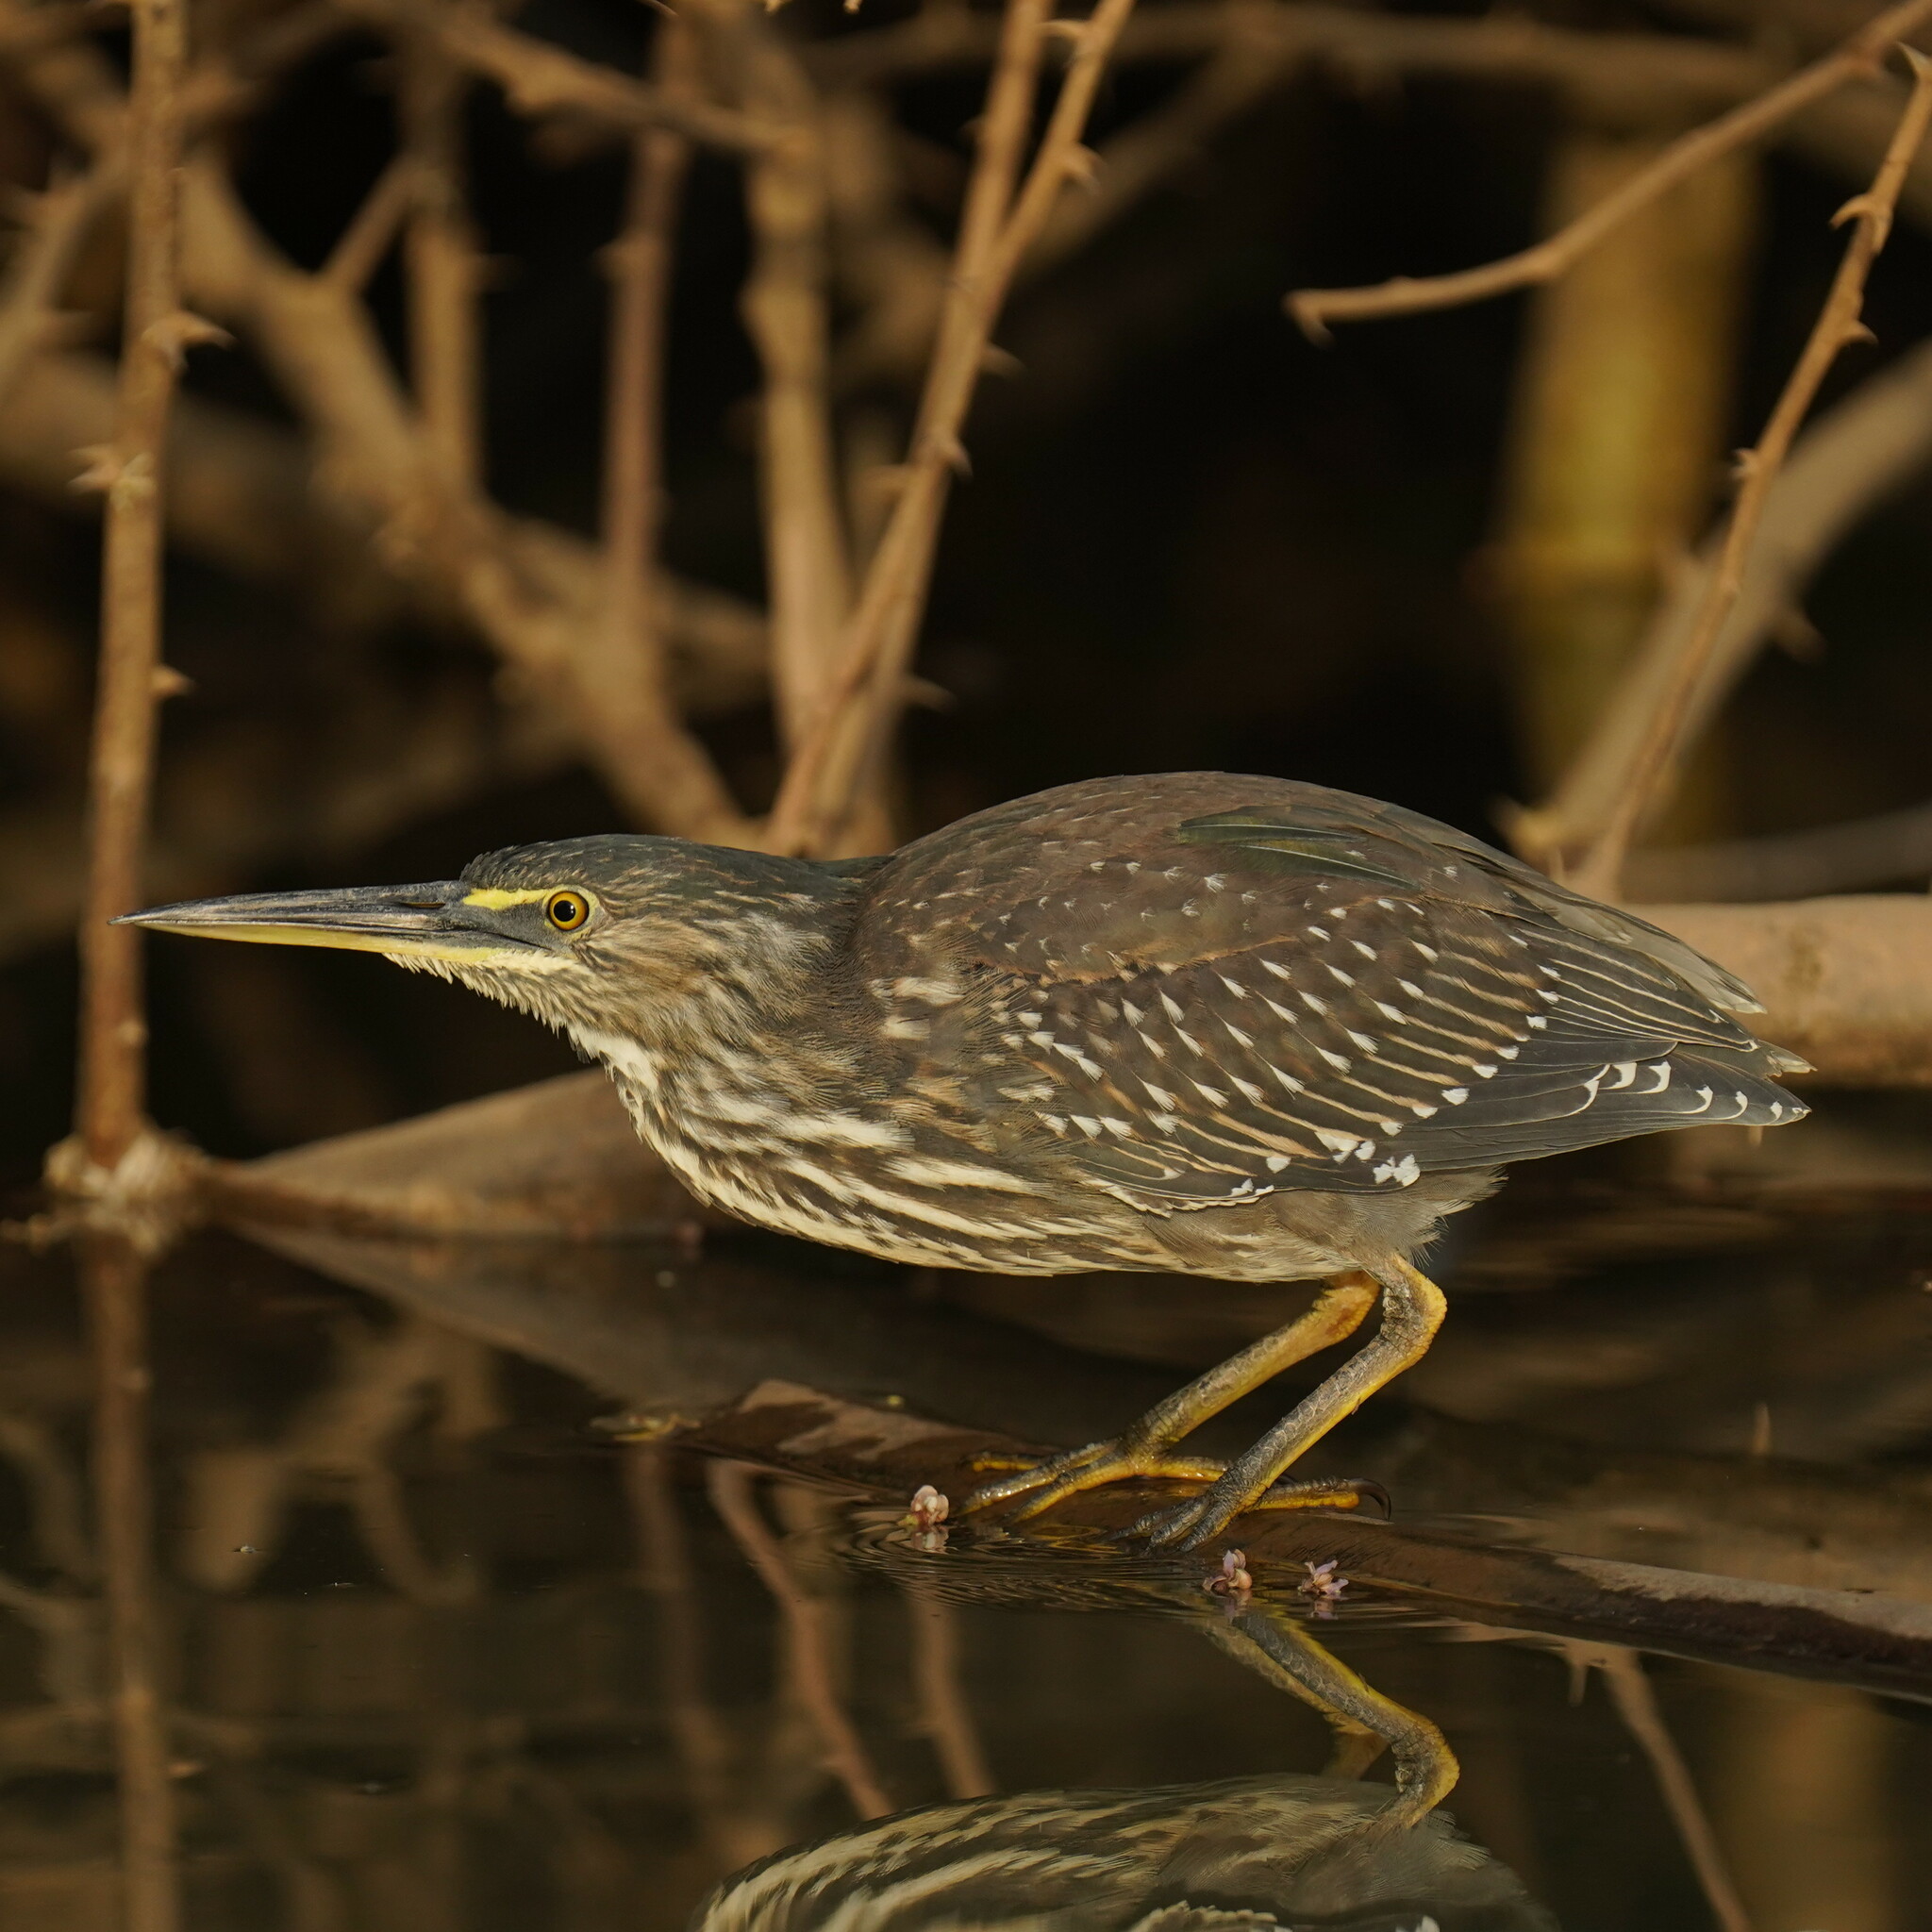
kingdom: Animalia
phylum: Chordata
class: Aves
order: Pelecaniformes
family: Ardeidae
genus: Butorides
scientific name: Butorides striata
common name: Striated heron
